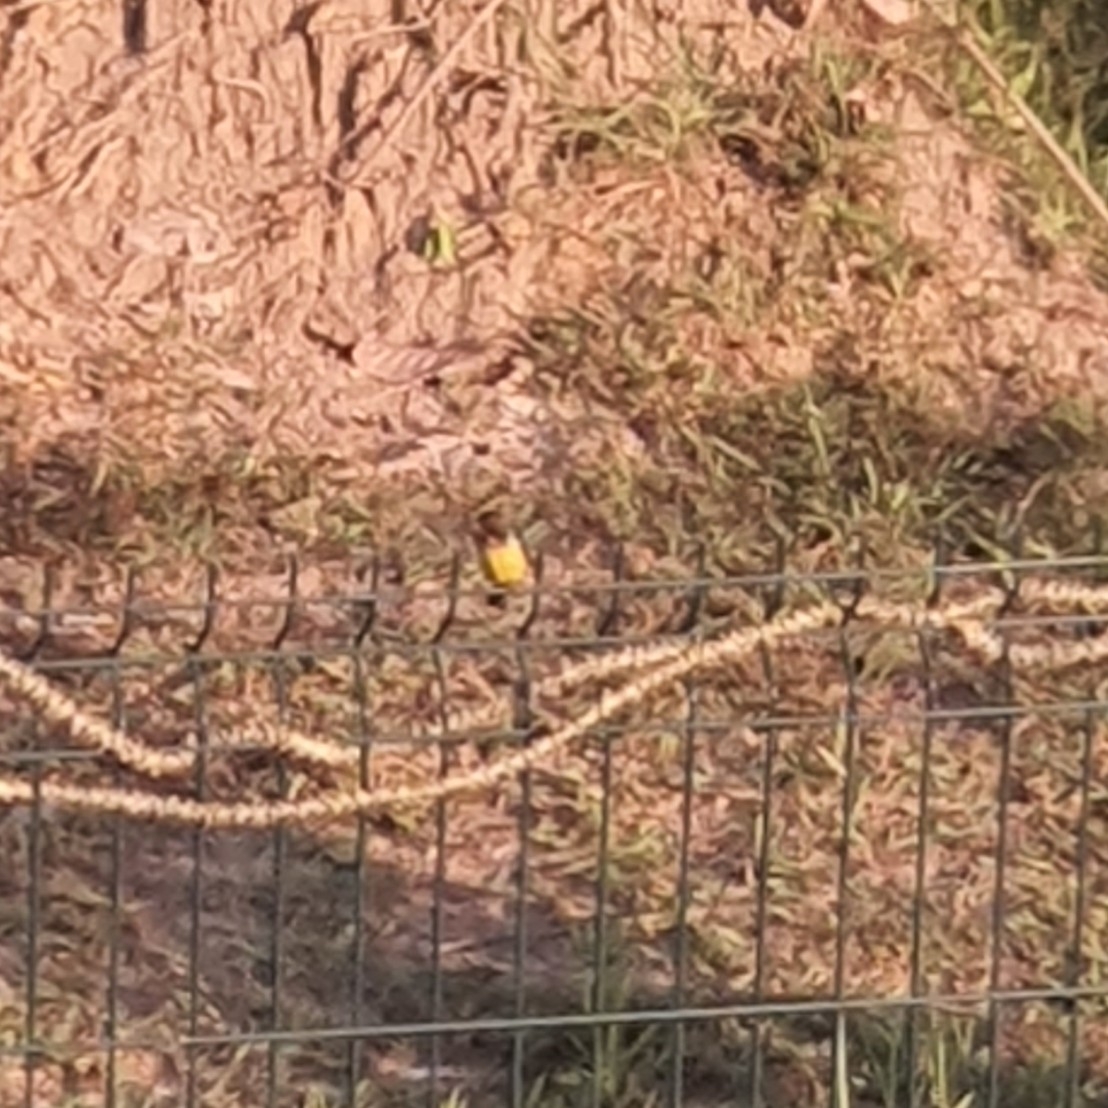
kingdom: Animalia
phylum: Chordata
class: Aves
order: Passeriformes
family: Nectariniidae
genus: Anthreptes
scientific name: Anthreptes malacensis
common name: Brown-throated sunbird
